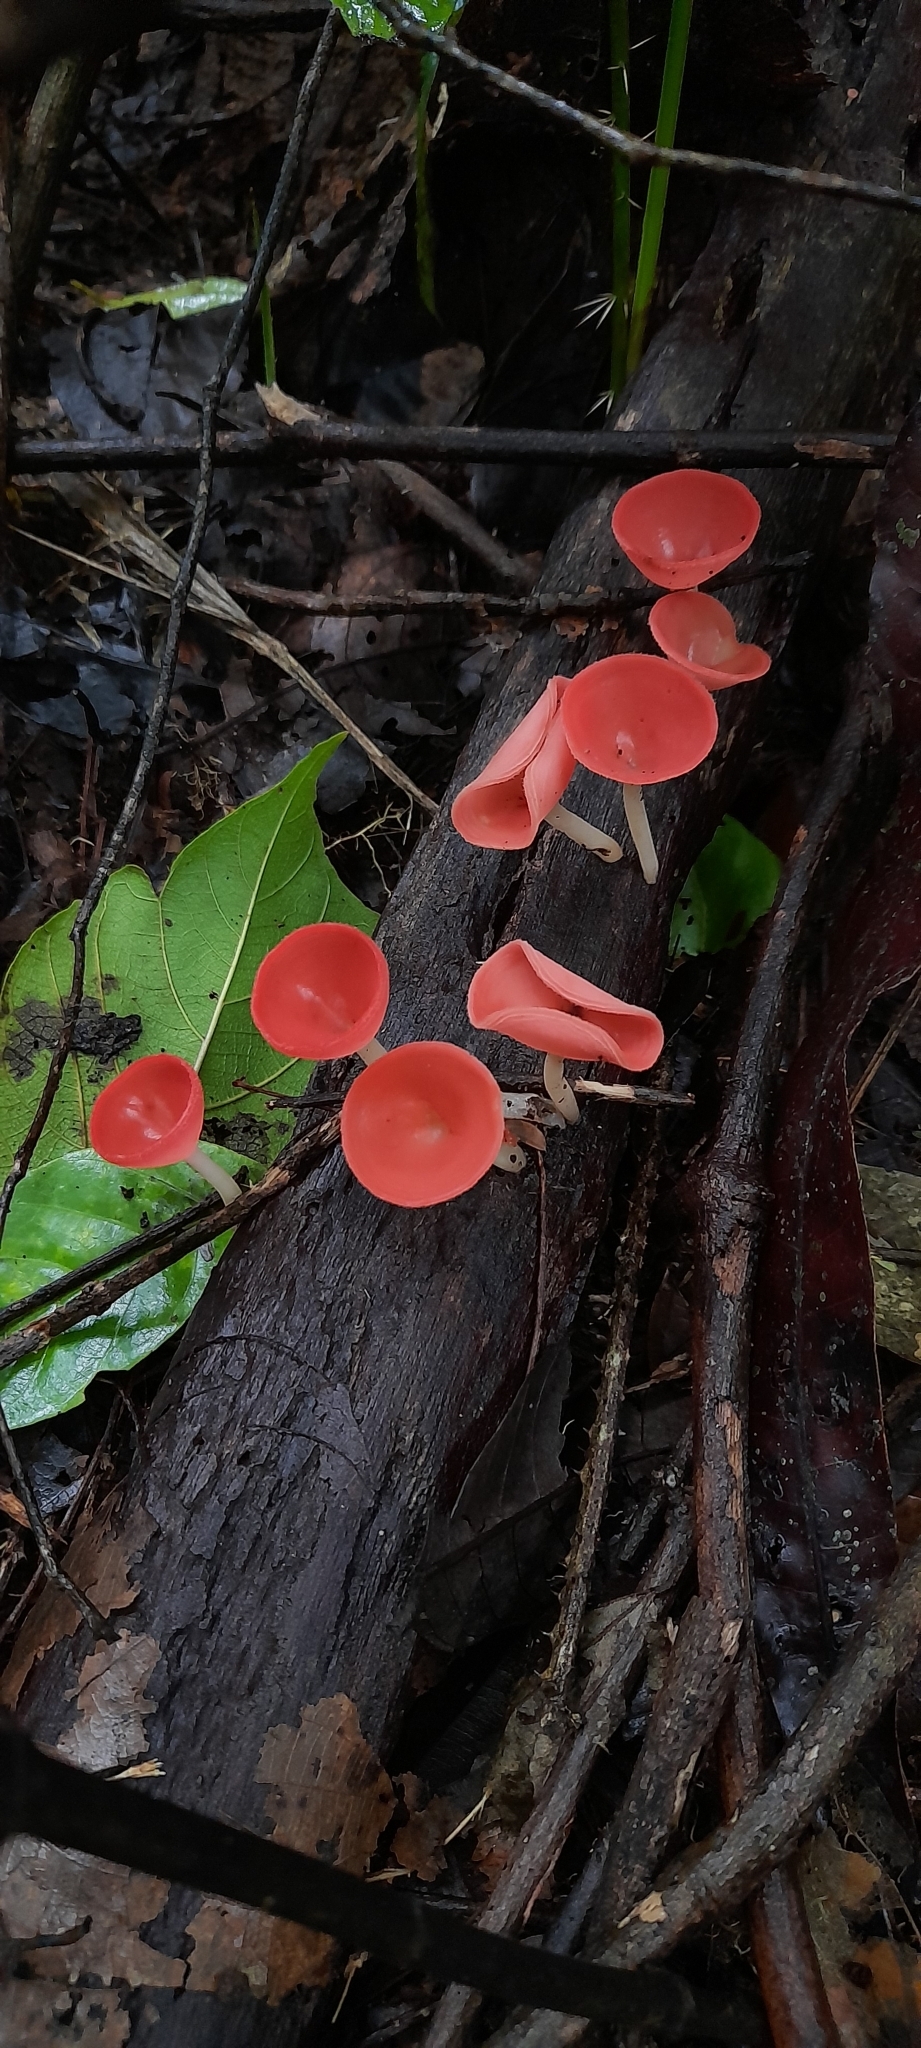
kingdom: Fungi
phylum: Ascomycota
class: Pezizomycetes
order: Pezizales
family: Sarcoscyphaceae
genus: Cookeina
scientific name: Cookeina speciosa
